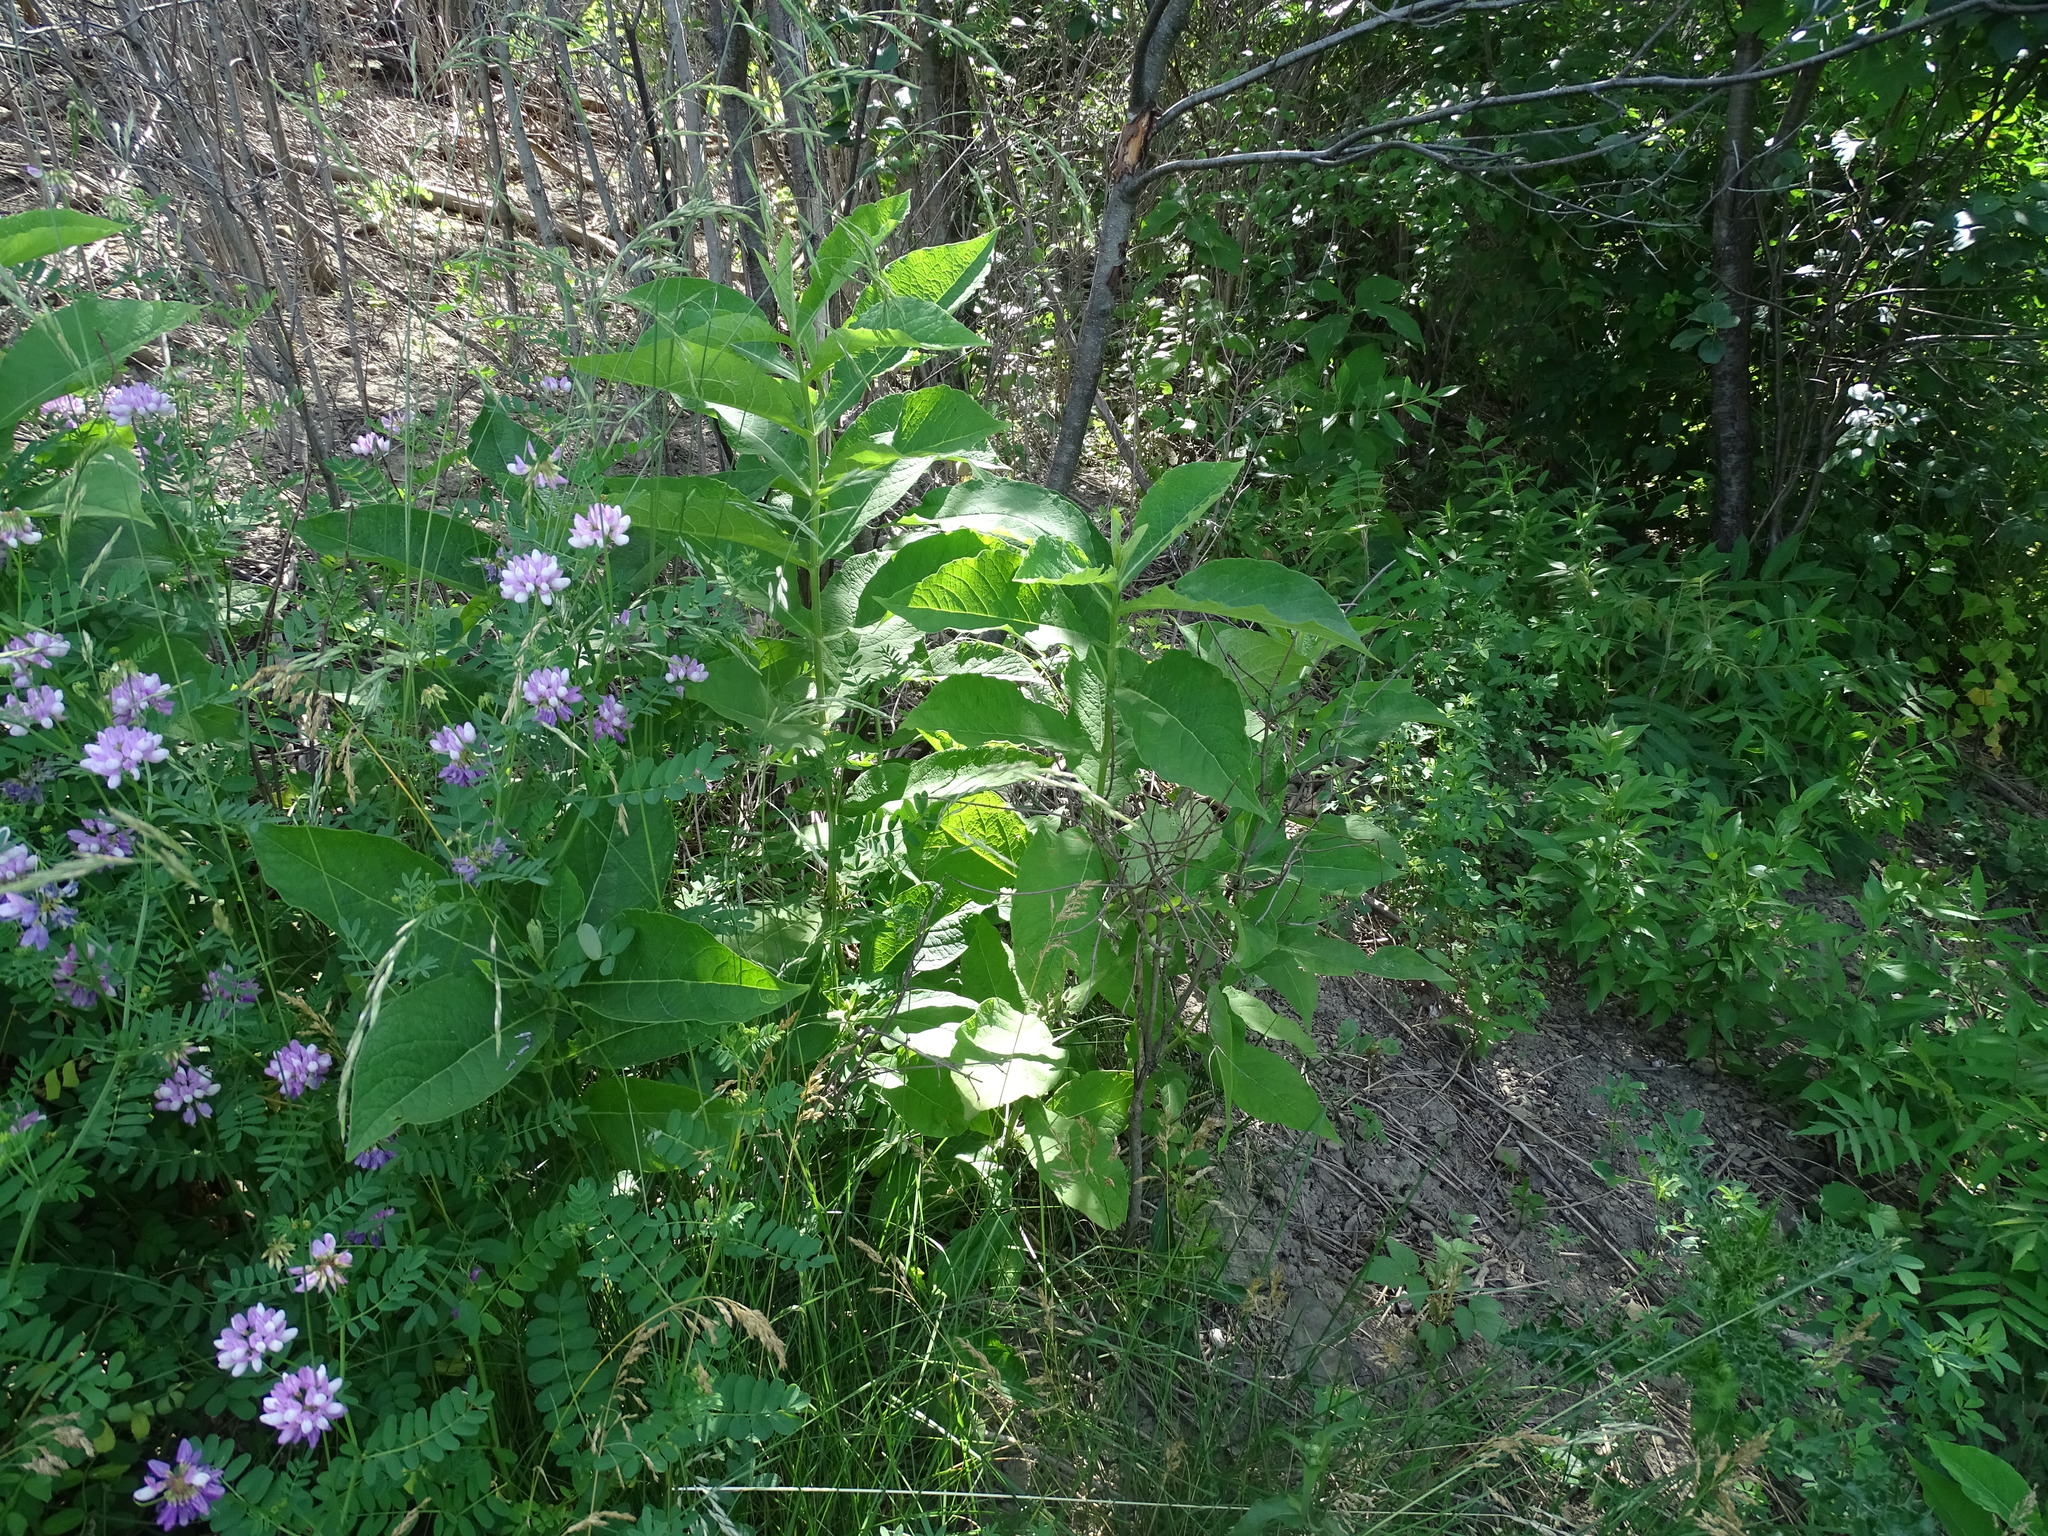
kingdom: Plantae
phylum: Tracheophyta
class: Magnoliopsida
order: Dipsacales
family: Caprifoliaceae
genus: Triosteum
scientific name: Triosteum aurantiacum
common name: Coffee tinker's-weed
